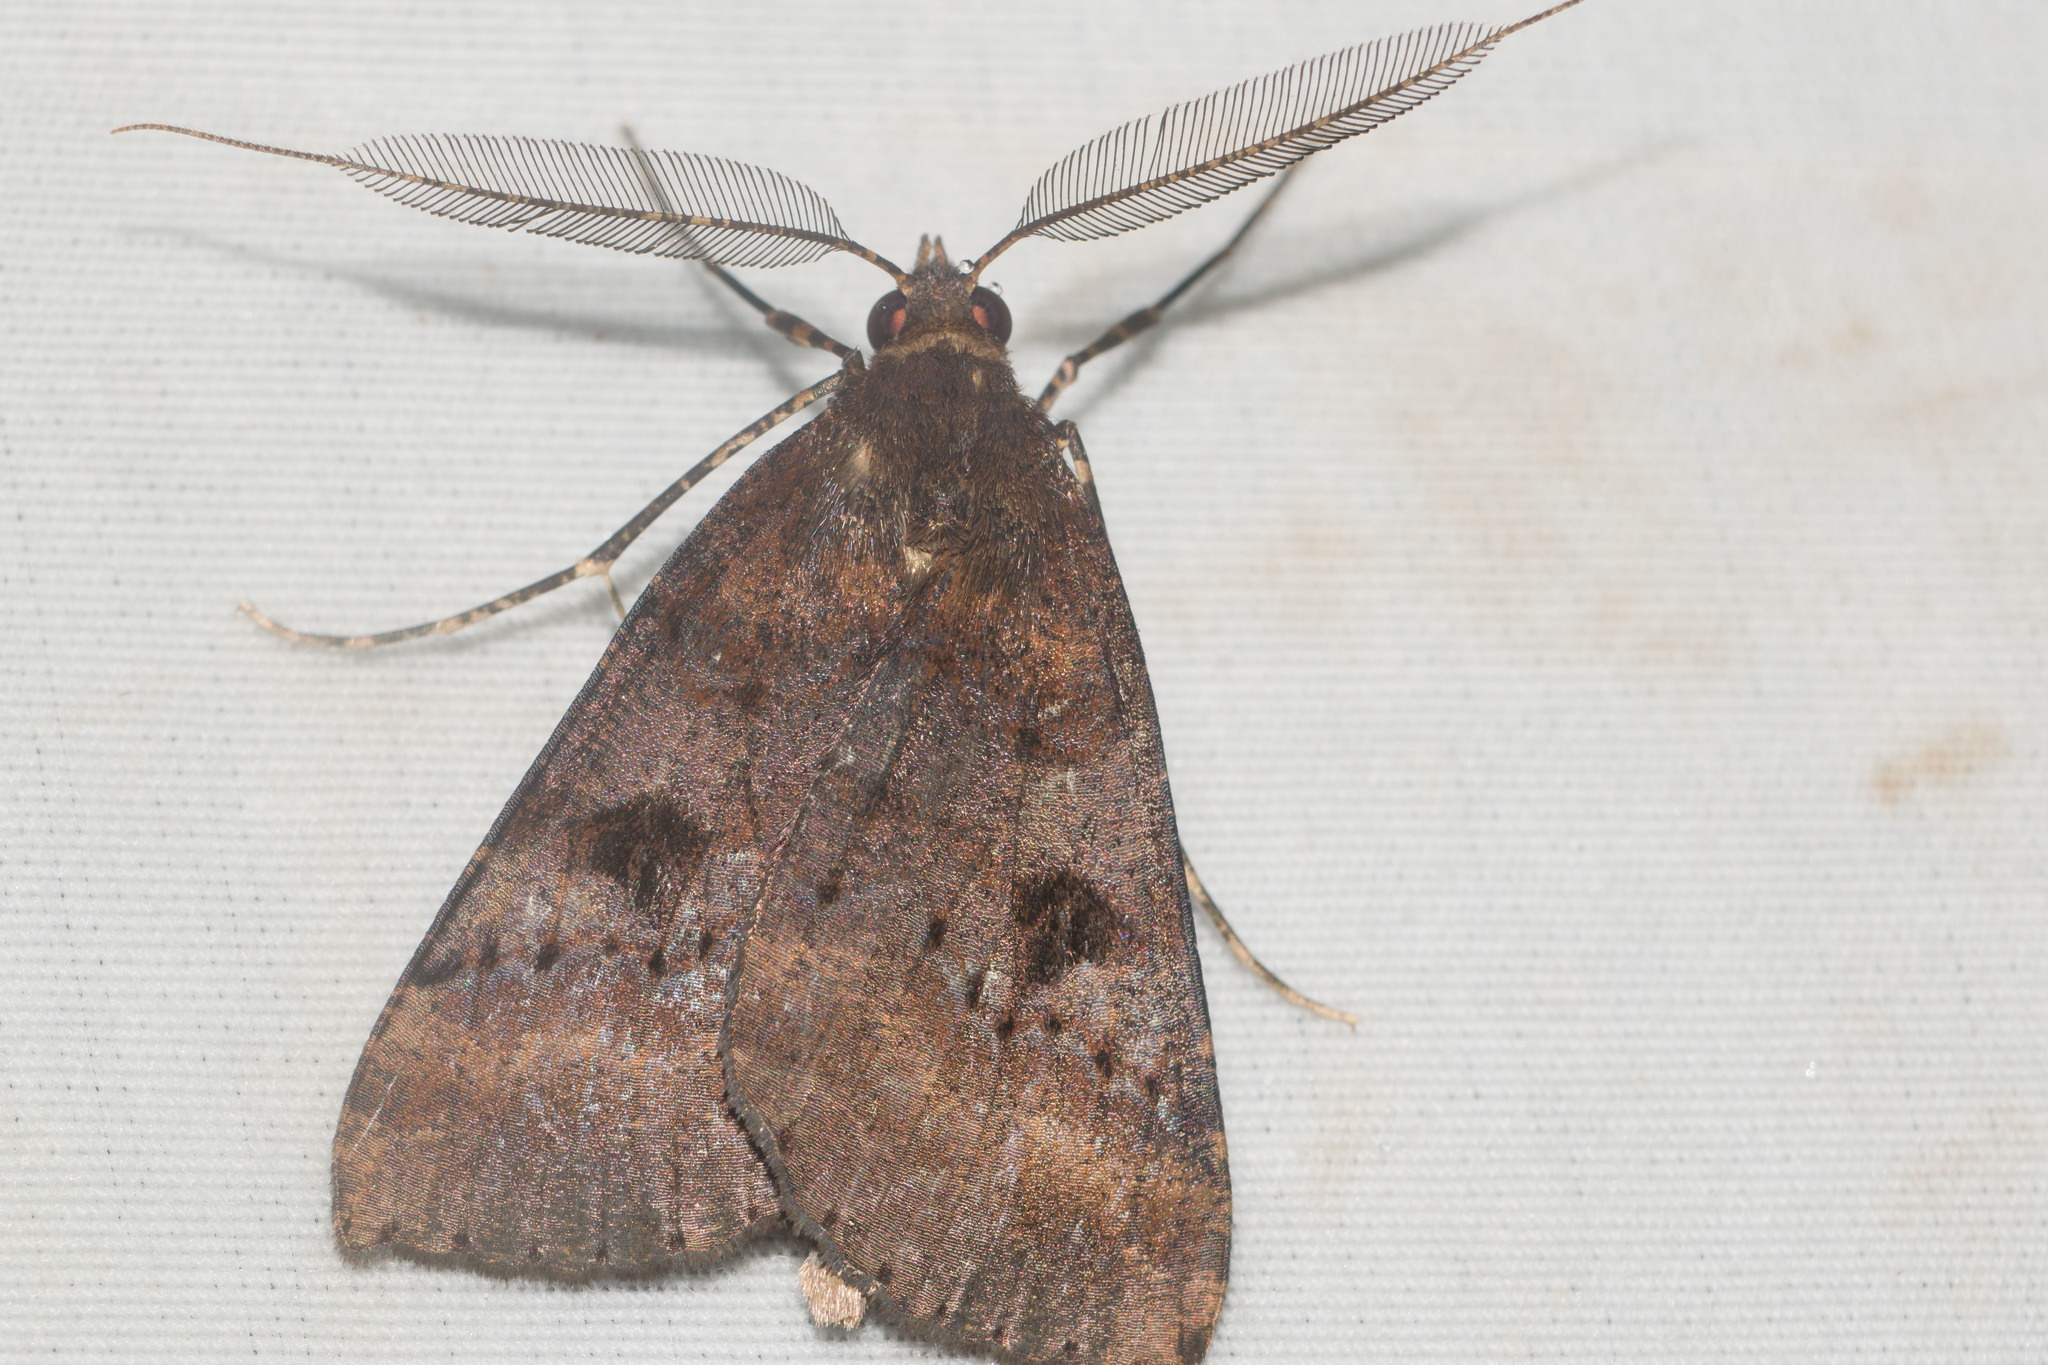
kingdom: Animalia
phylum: Arthropoda
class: Insecta
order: Lepidoptera
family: Geometridae
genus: Scotorythra
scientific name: Scotorythra rara
